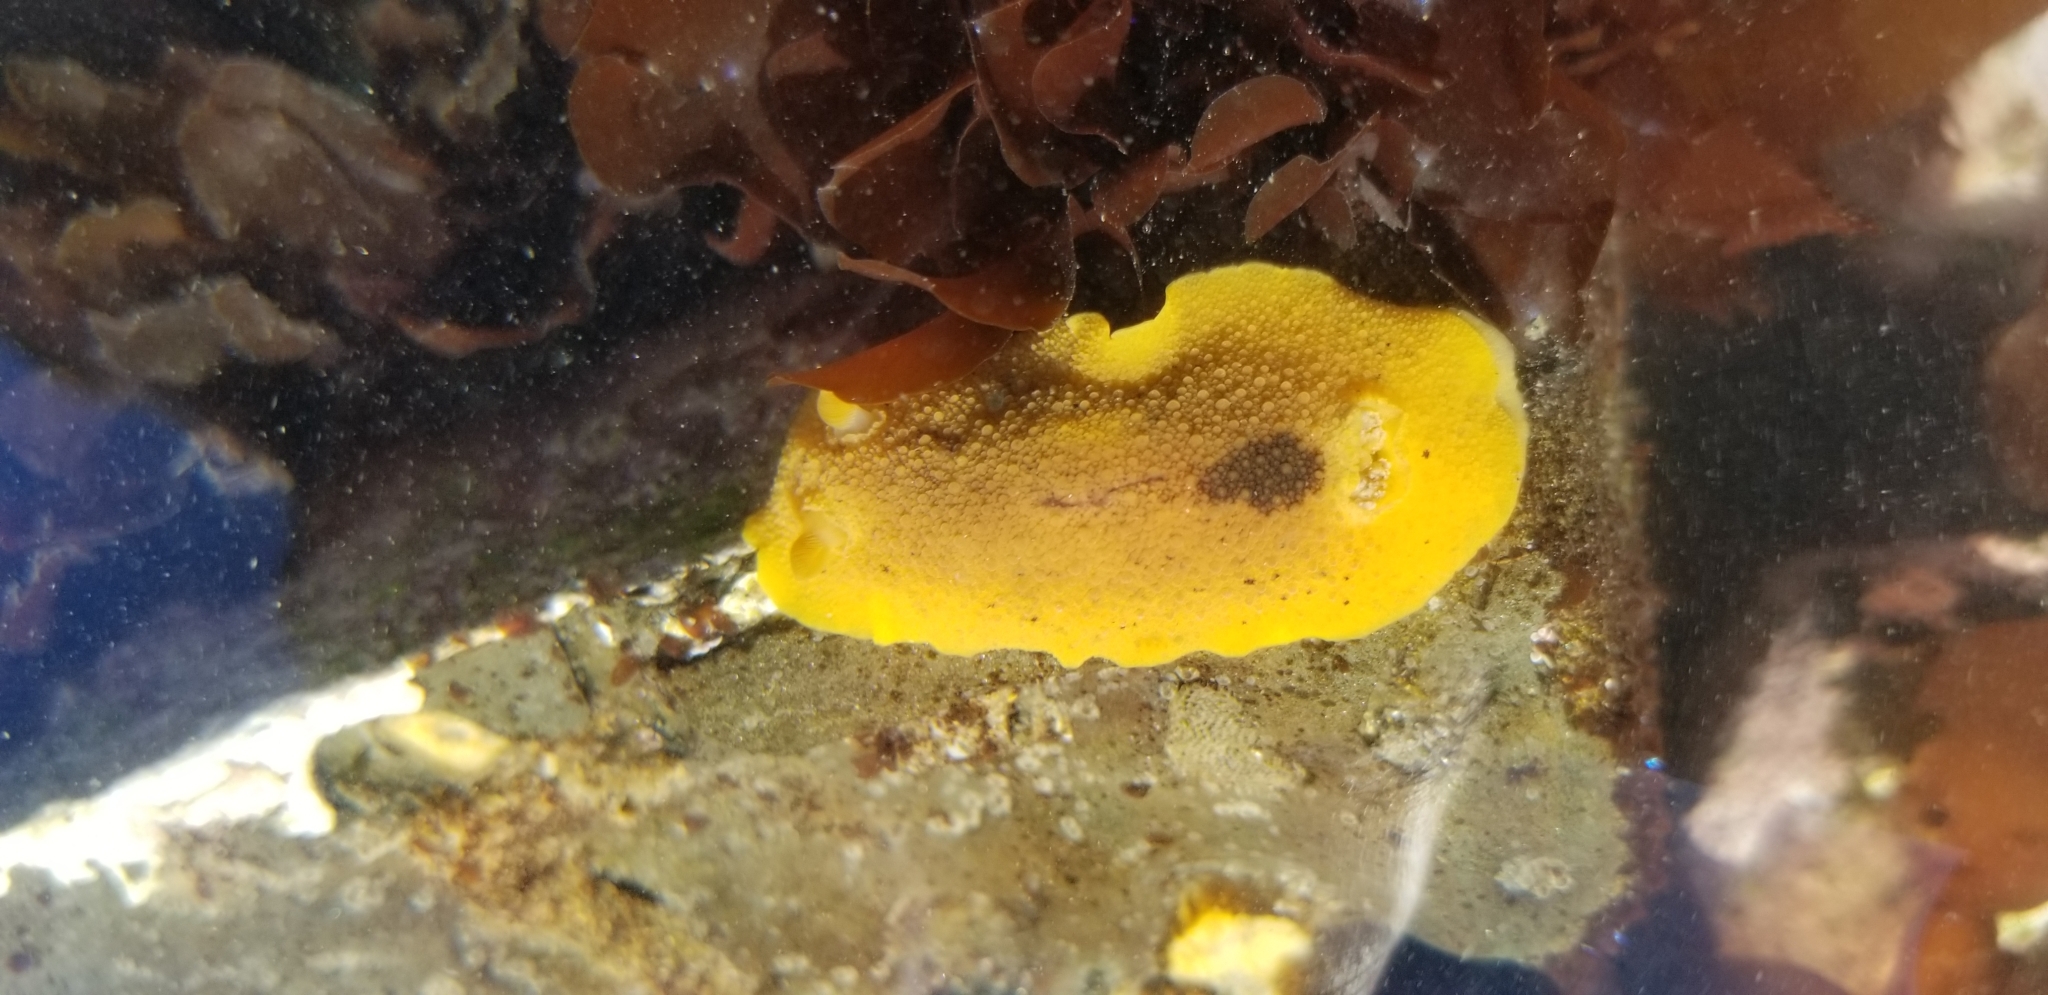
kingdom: Animalia
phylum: Mollusca
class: Gastropoda
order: Nudibranchia
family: Discodorididae
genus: Geitodoris
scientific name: Geitodoris heathi
